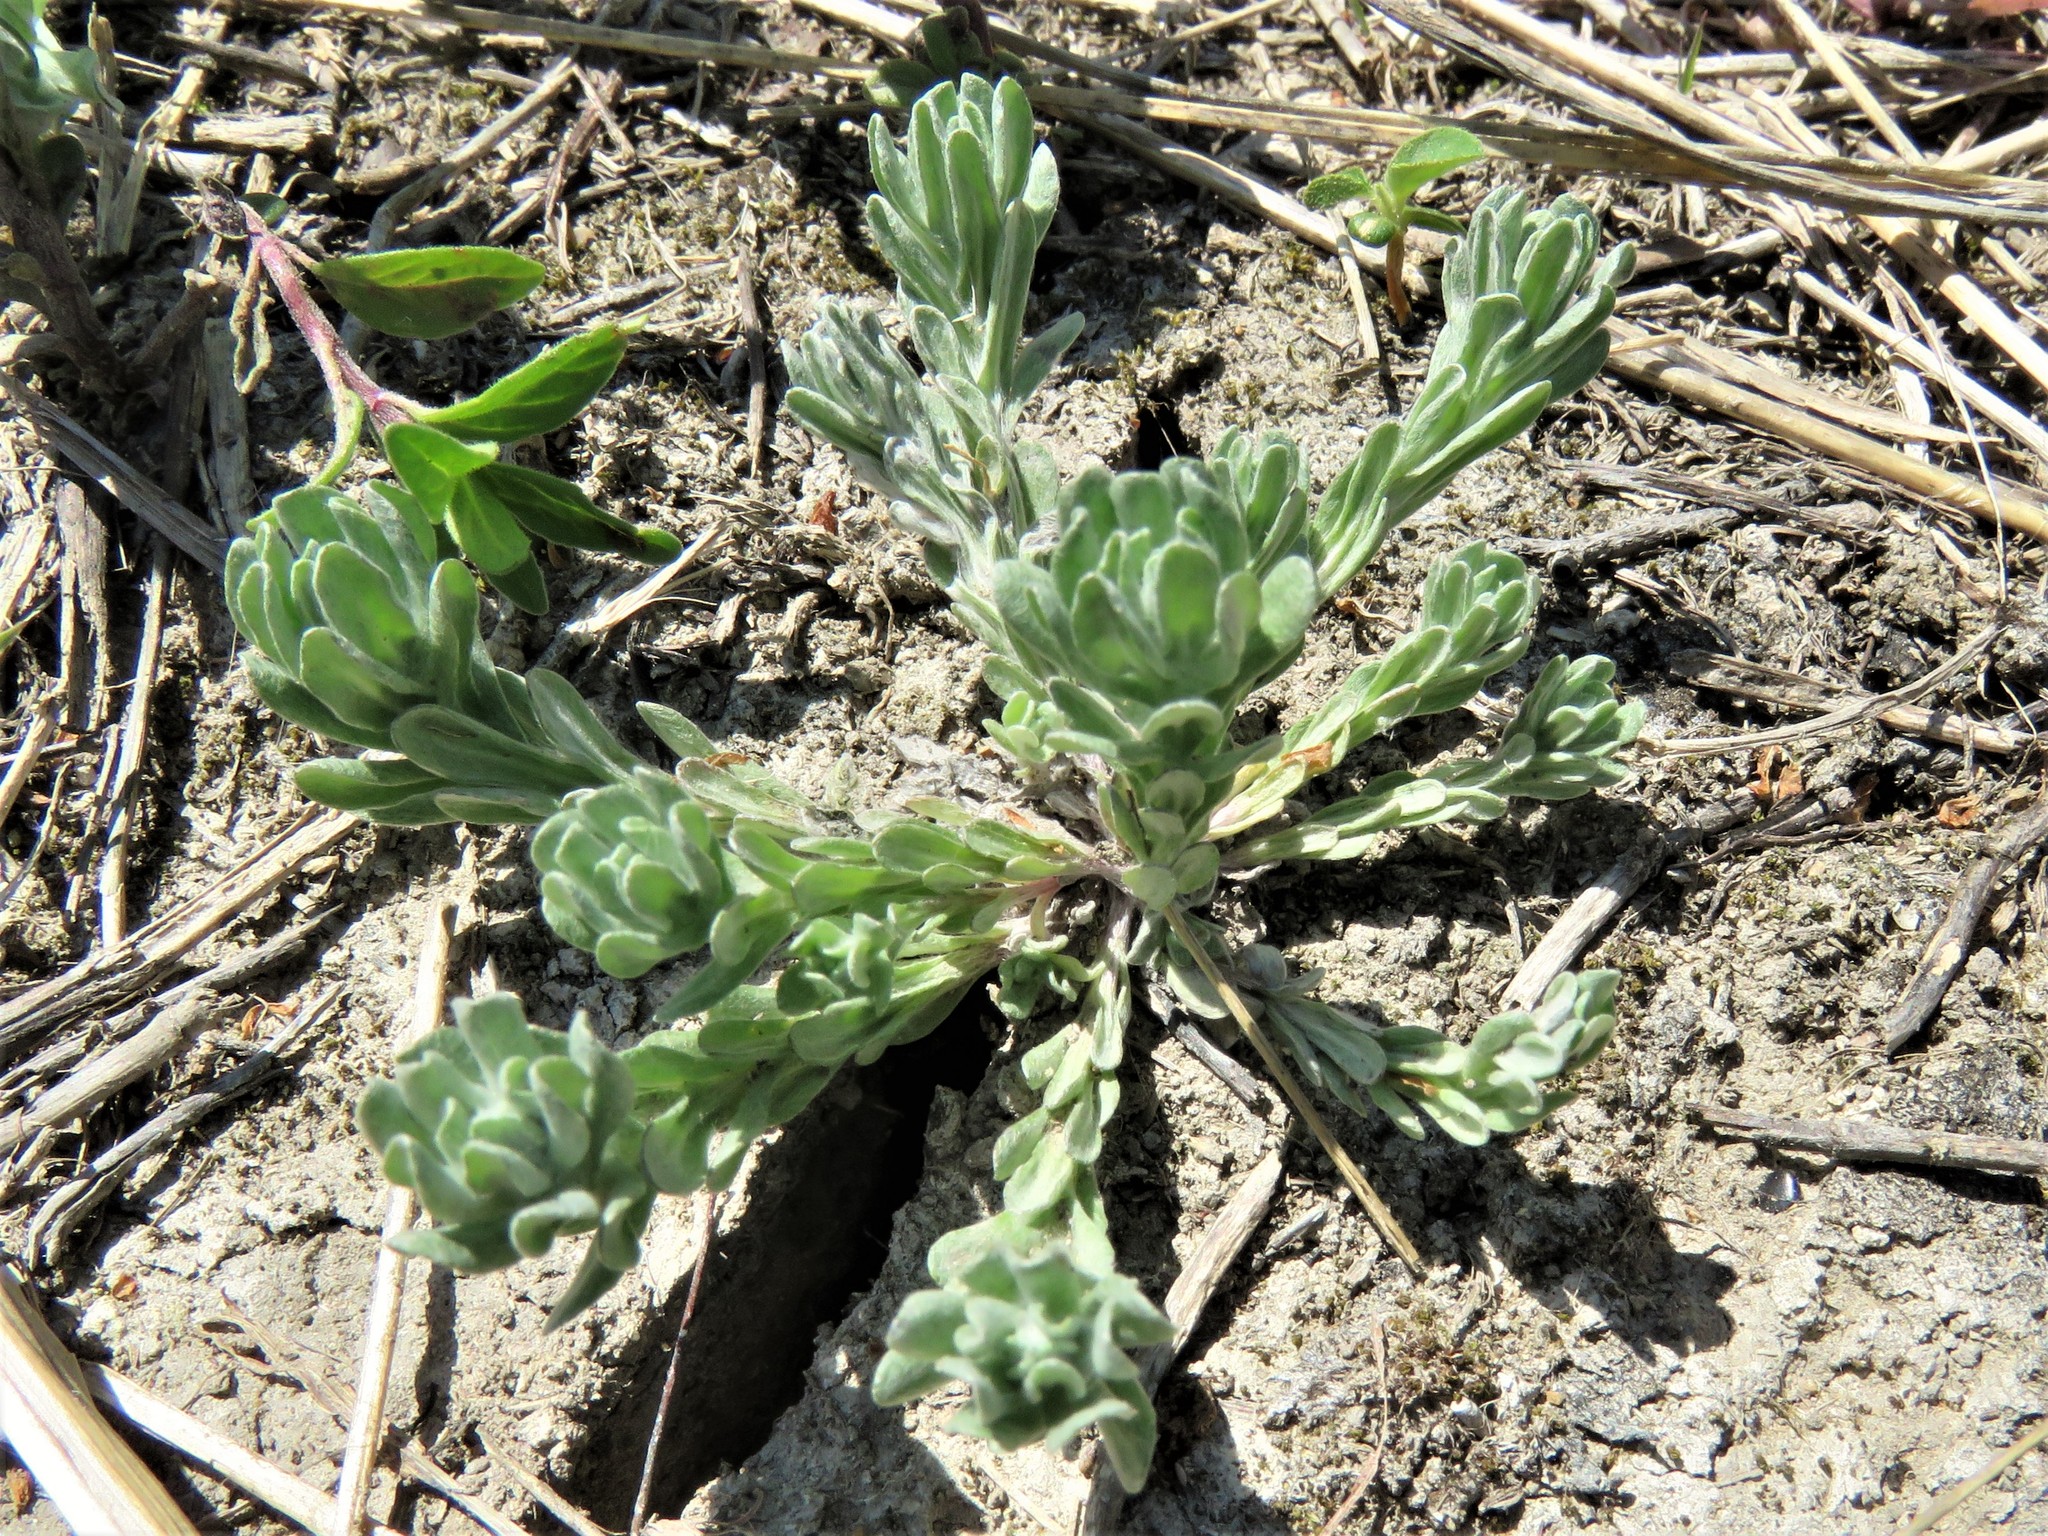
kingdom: Plantae
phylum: Tracheophyta
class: Magnoliopsida
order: Asterales
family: Asteraceae
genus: Diaperia
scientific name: Diaperia prolifera
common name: Big-head rabbit-tobacco
